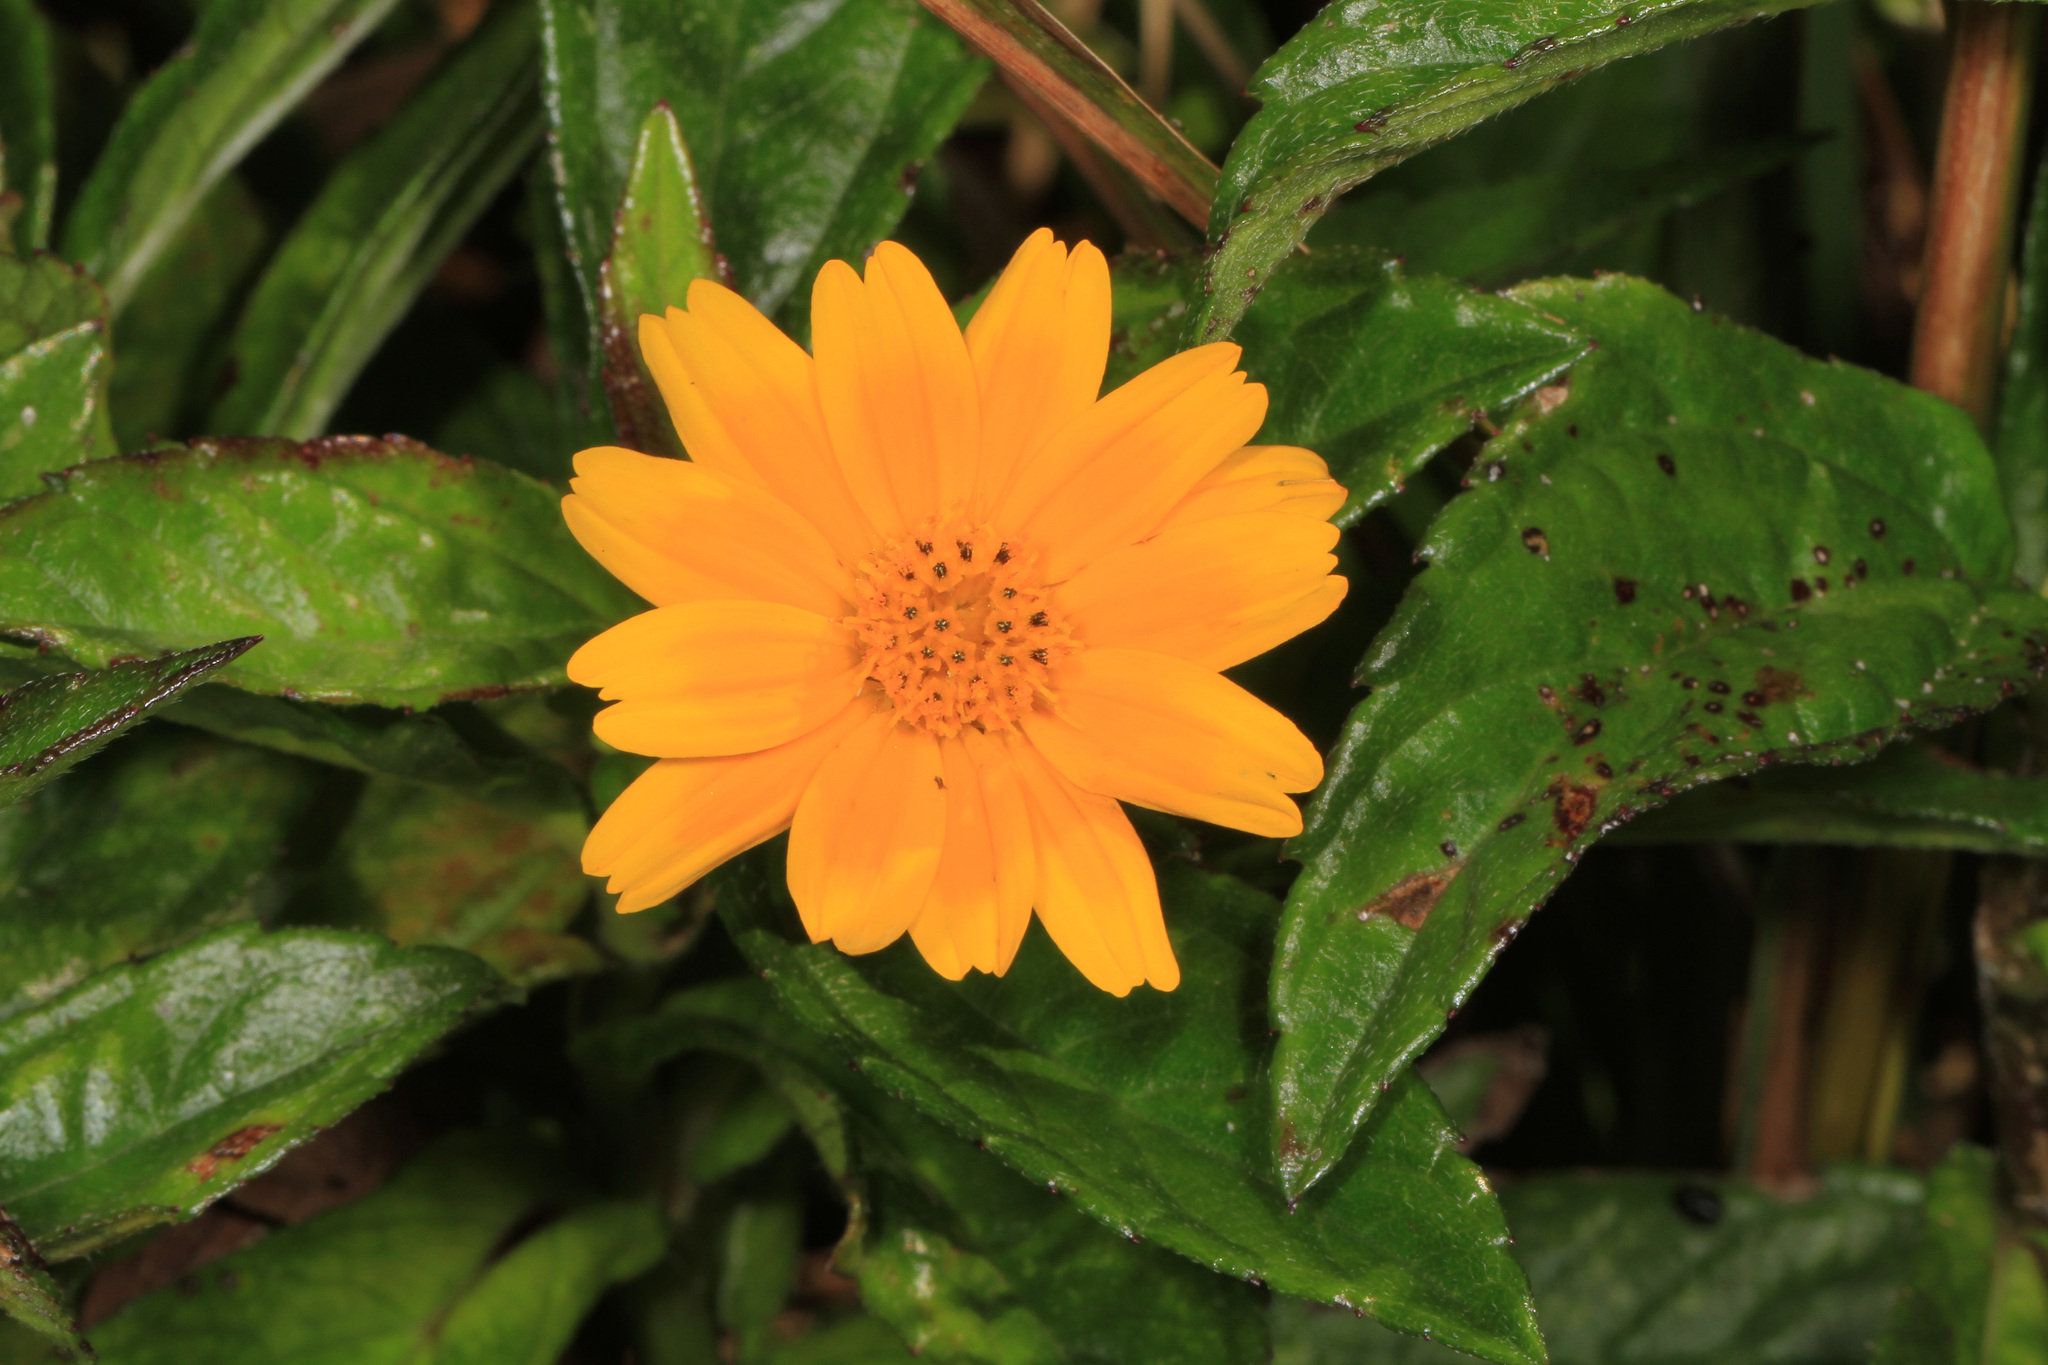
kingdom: Plantae
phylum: Tracheophyta
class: Magnoliopsida
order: Asterales
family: Asteraceae
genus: Sphagneticola
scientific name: Sphagneticola trilobata
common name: Bay biscayne creeping-oxeye
